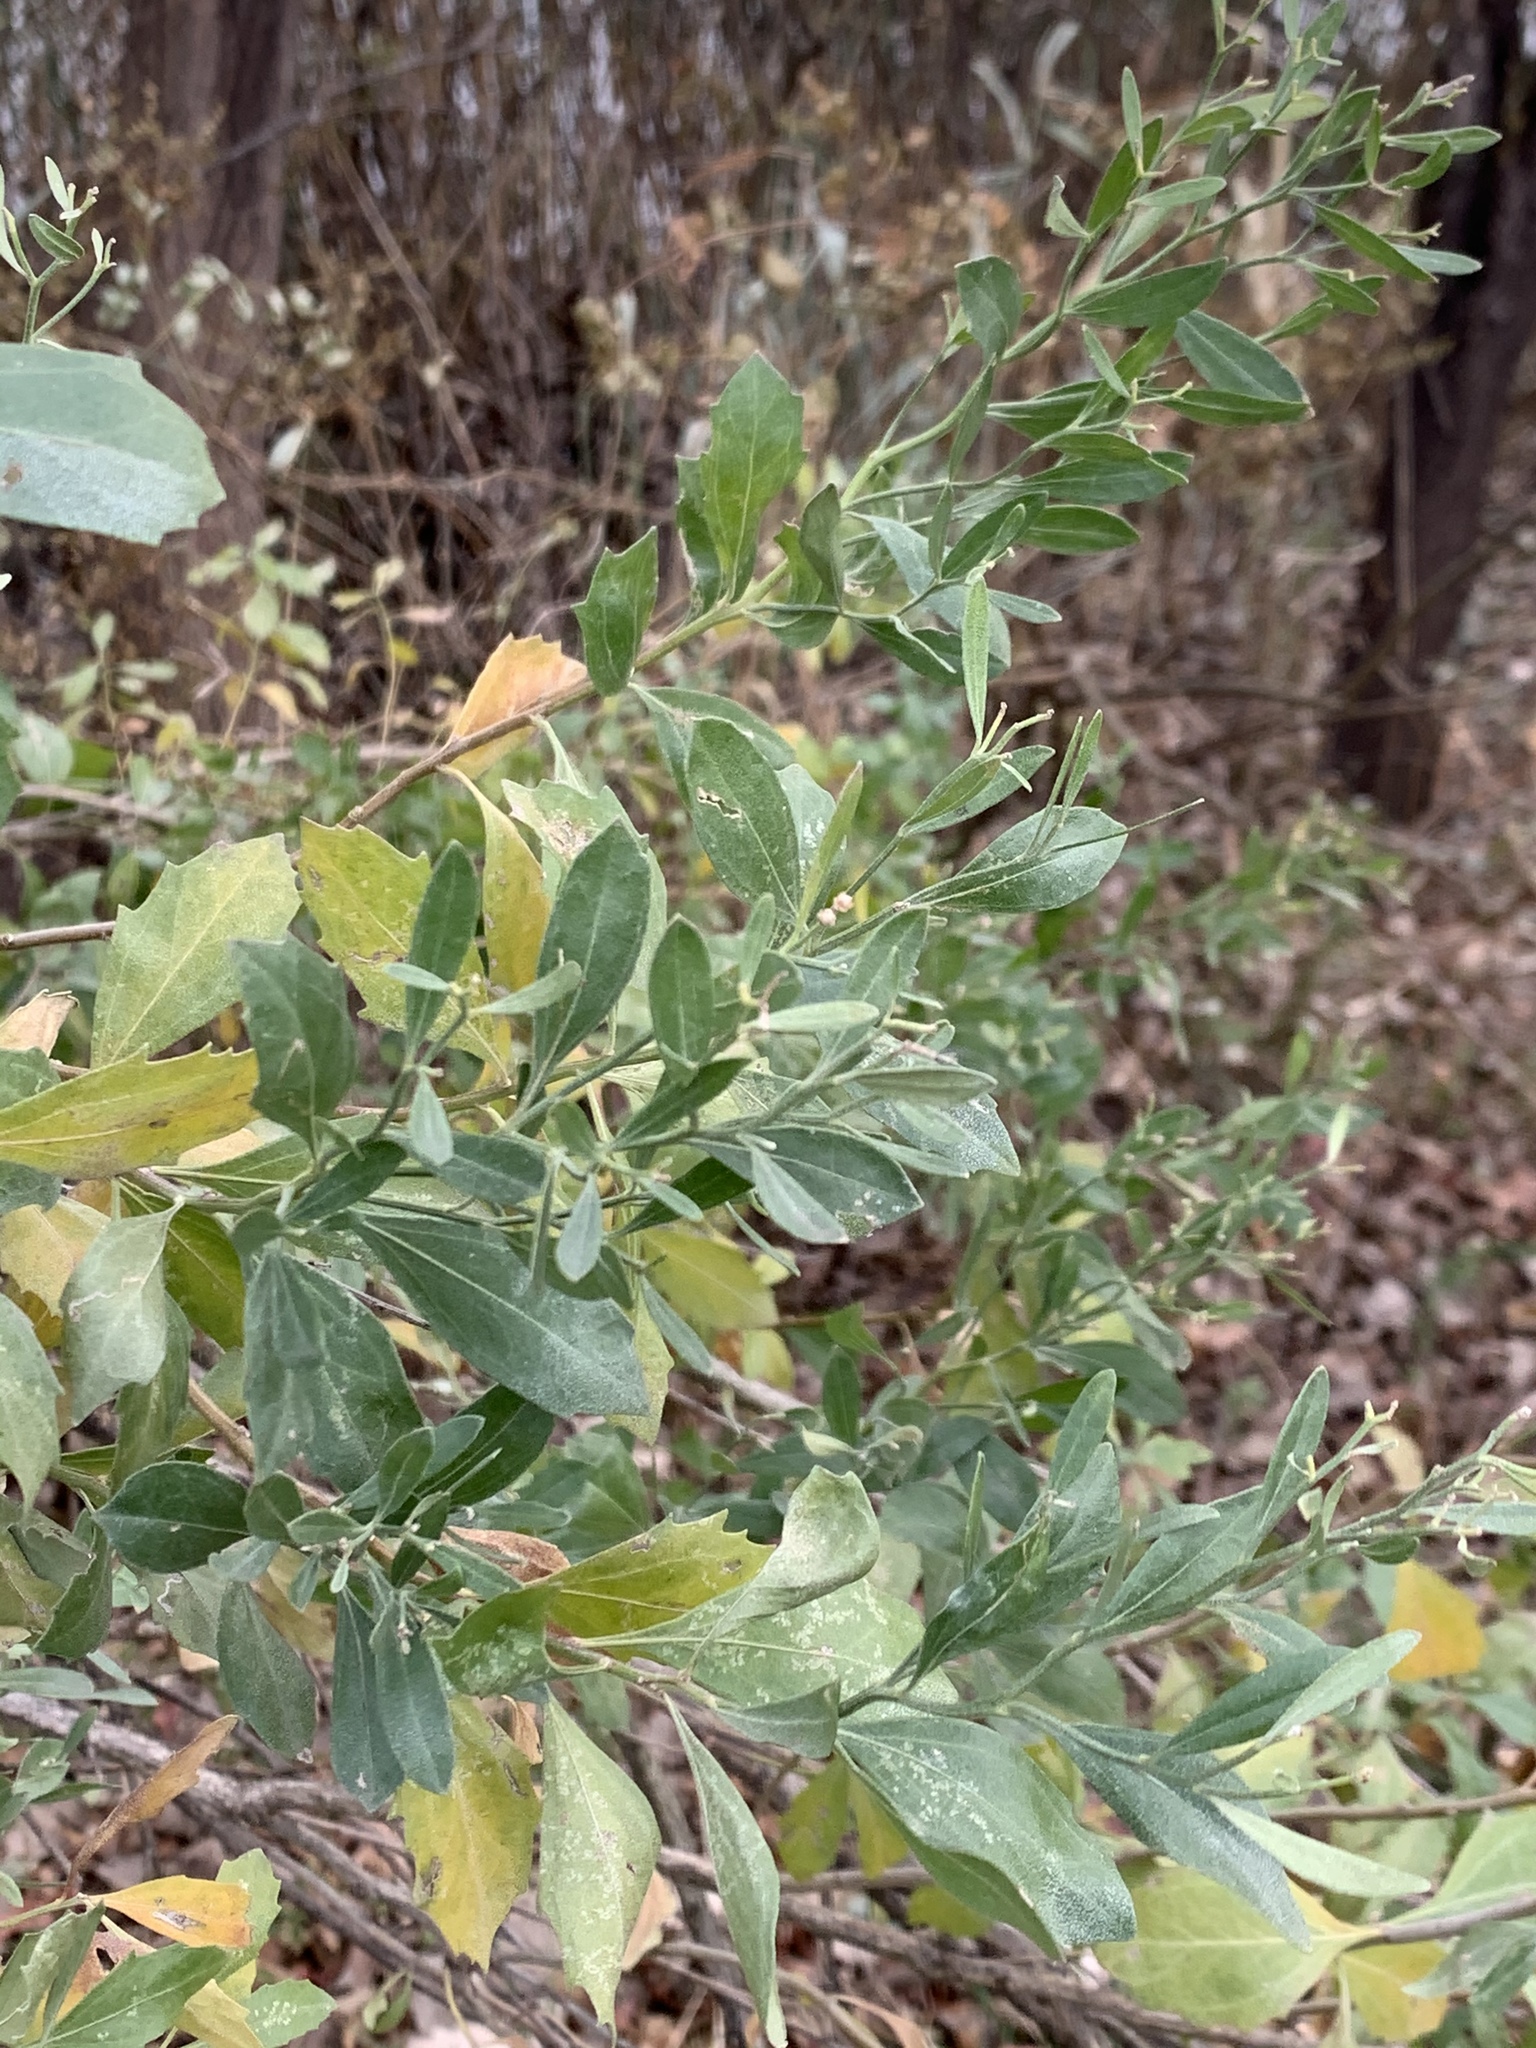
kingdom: Plantae
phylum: Tracheophyta
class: Magnoliopsida
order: Asterales
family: Asteraceae
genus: Baccharis
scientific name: Baccharis halimifolia
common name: Eastern baccharis
